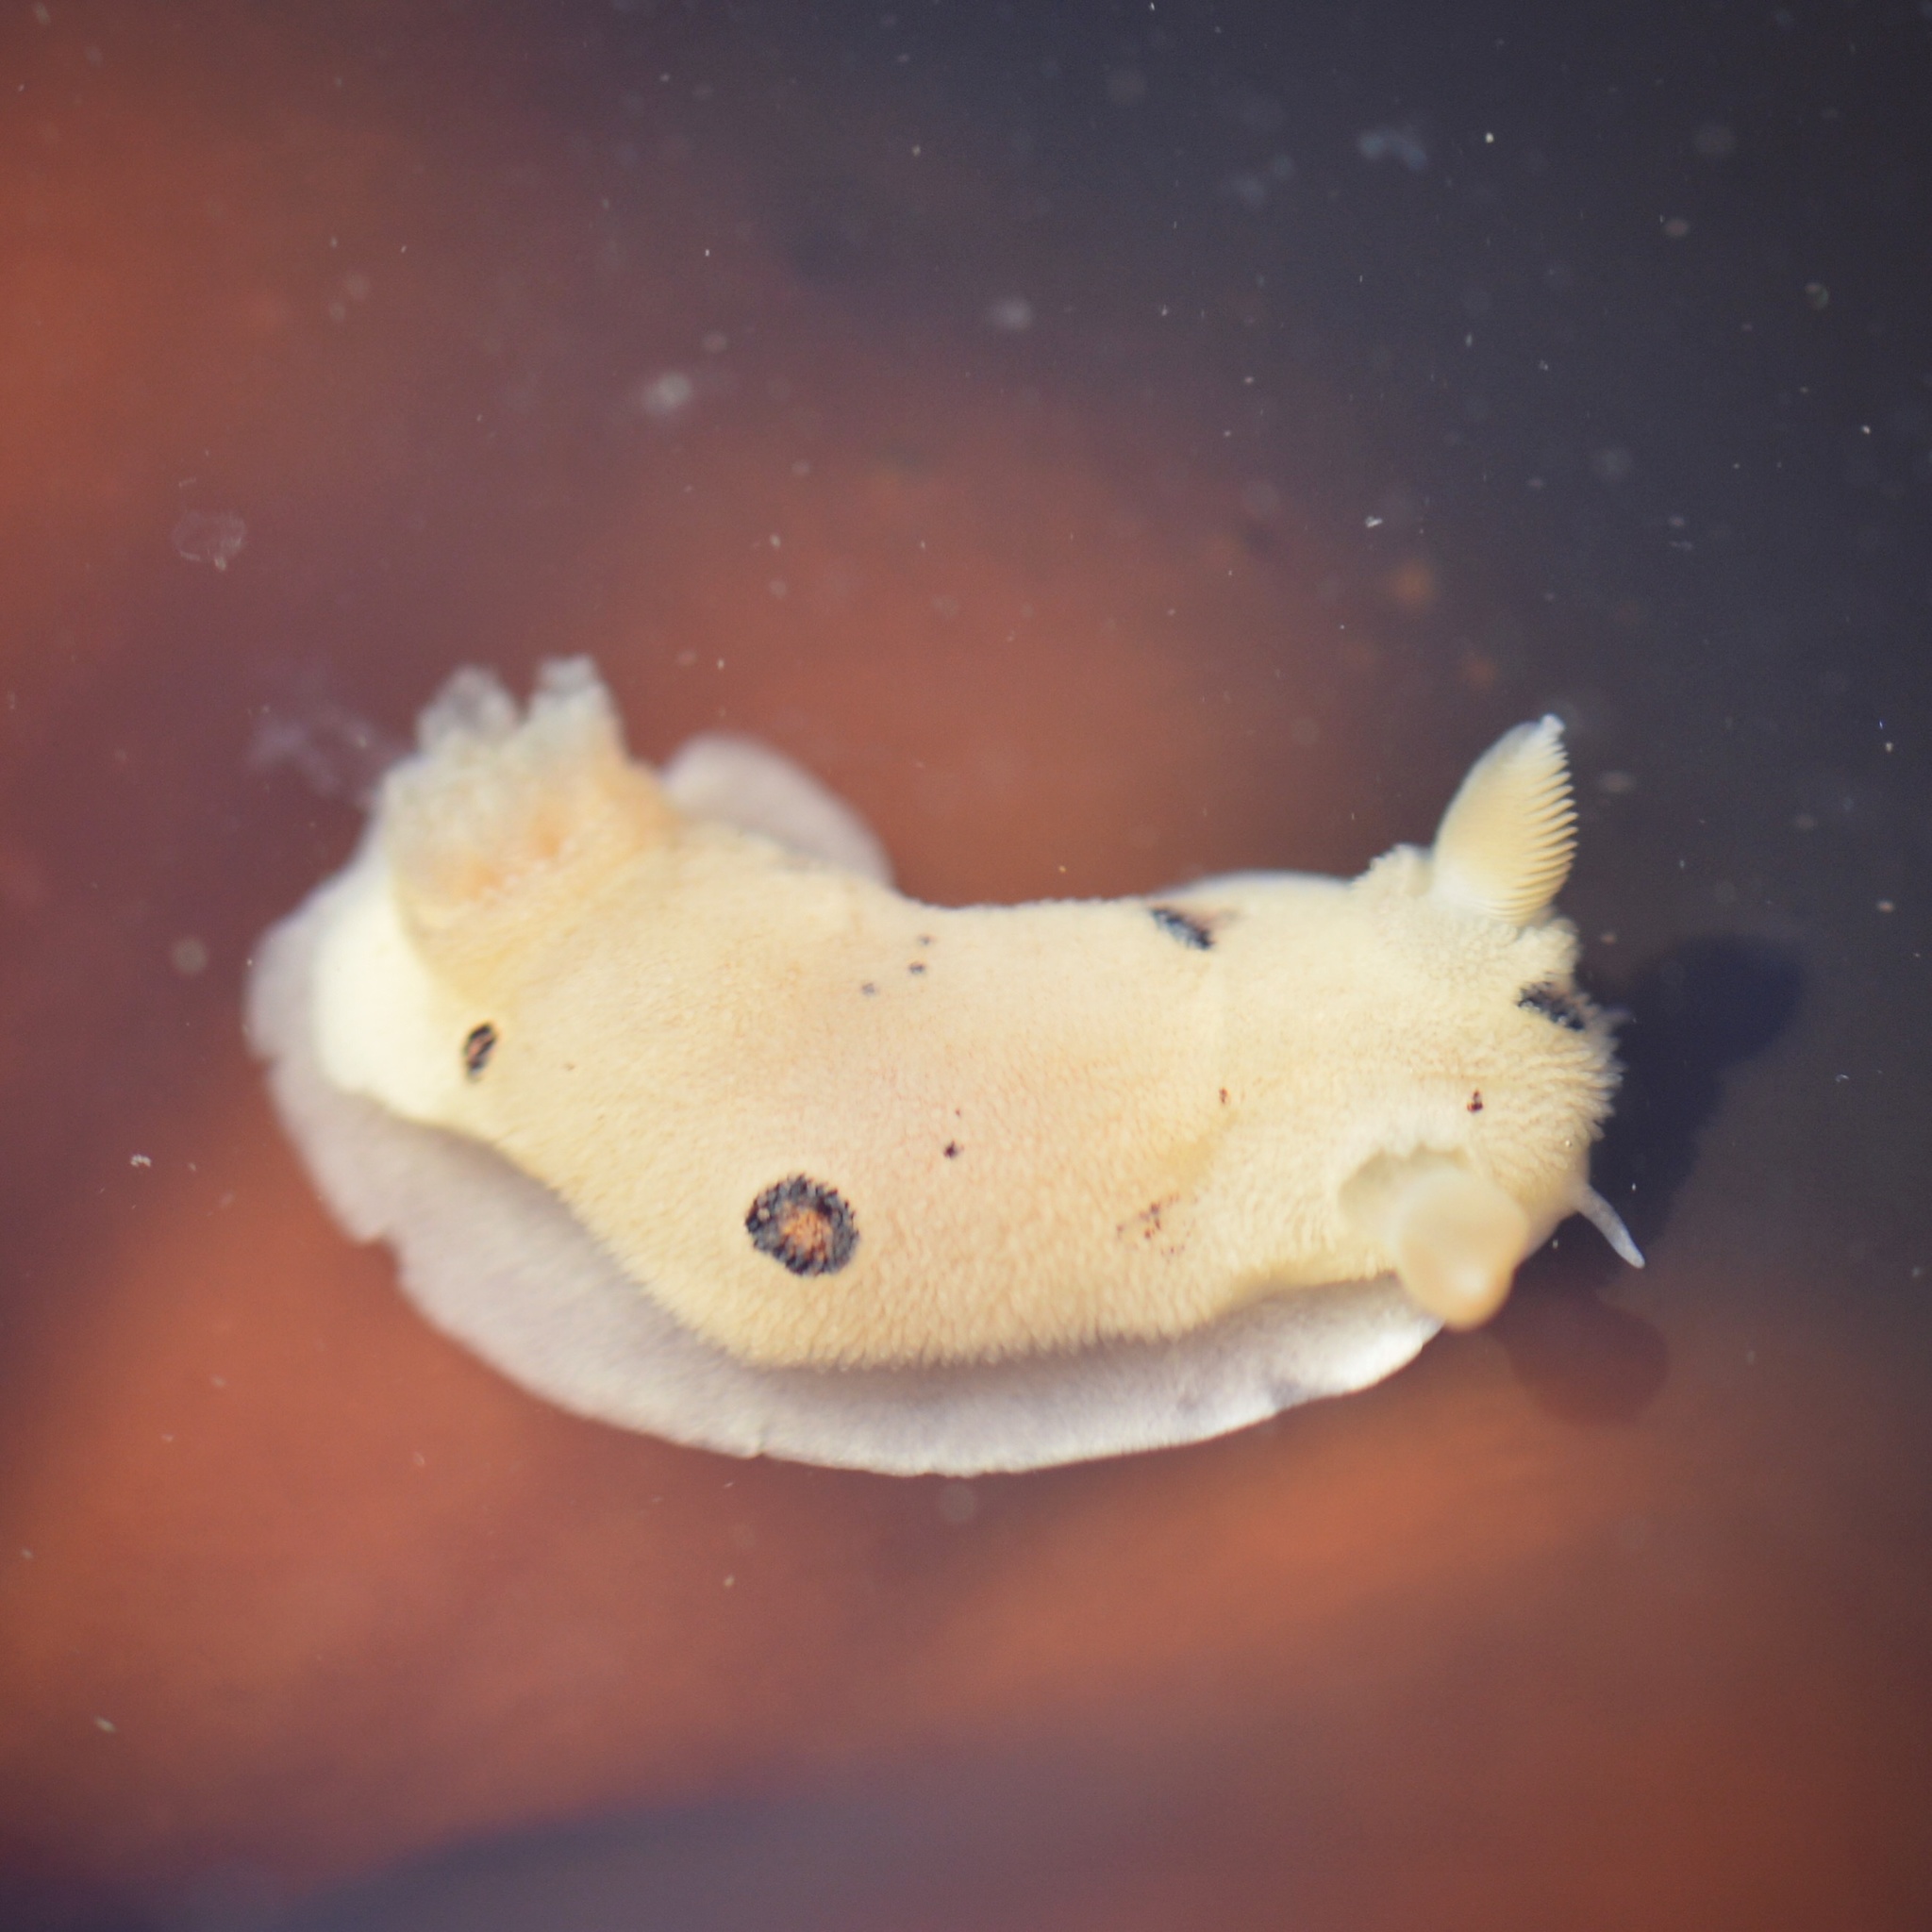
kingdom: Animalia
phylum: Mollusca
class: Gastropoda
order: Nudibranchia
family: Discodorididae
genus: Diaulula
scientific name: Diaulula sandiegensis
